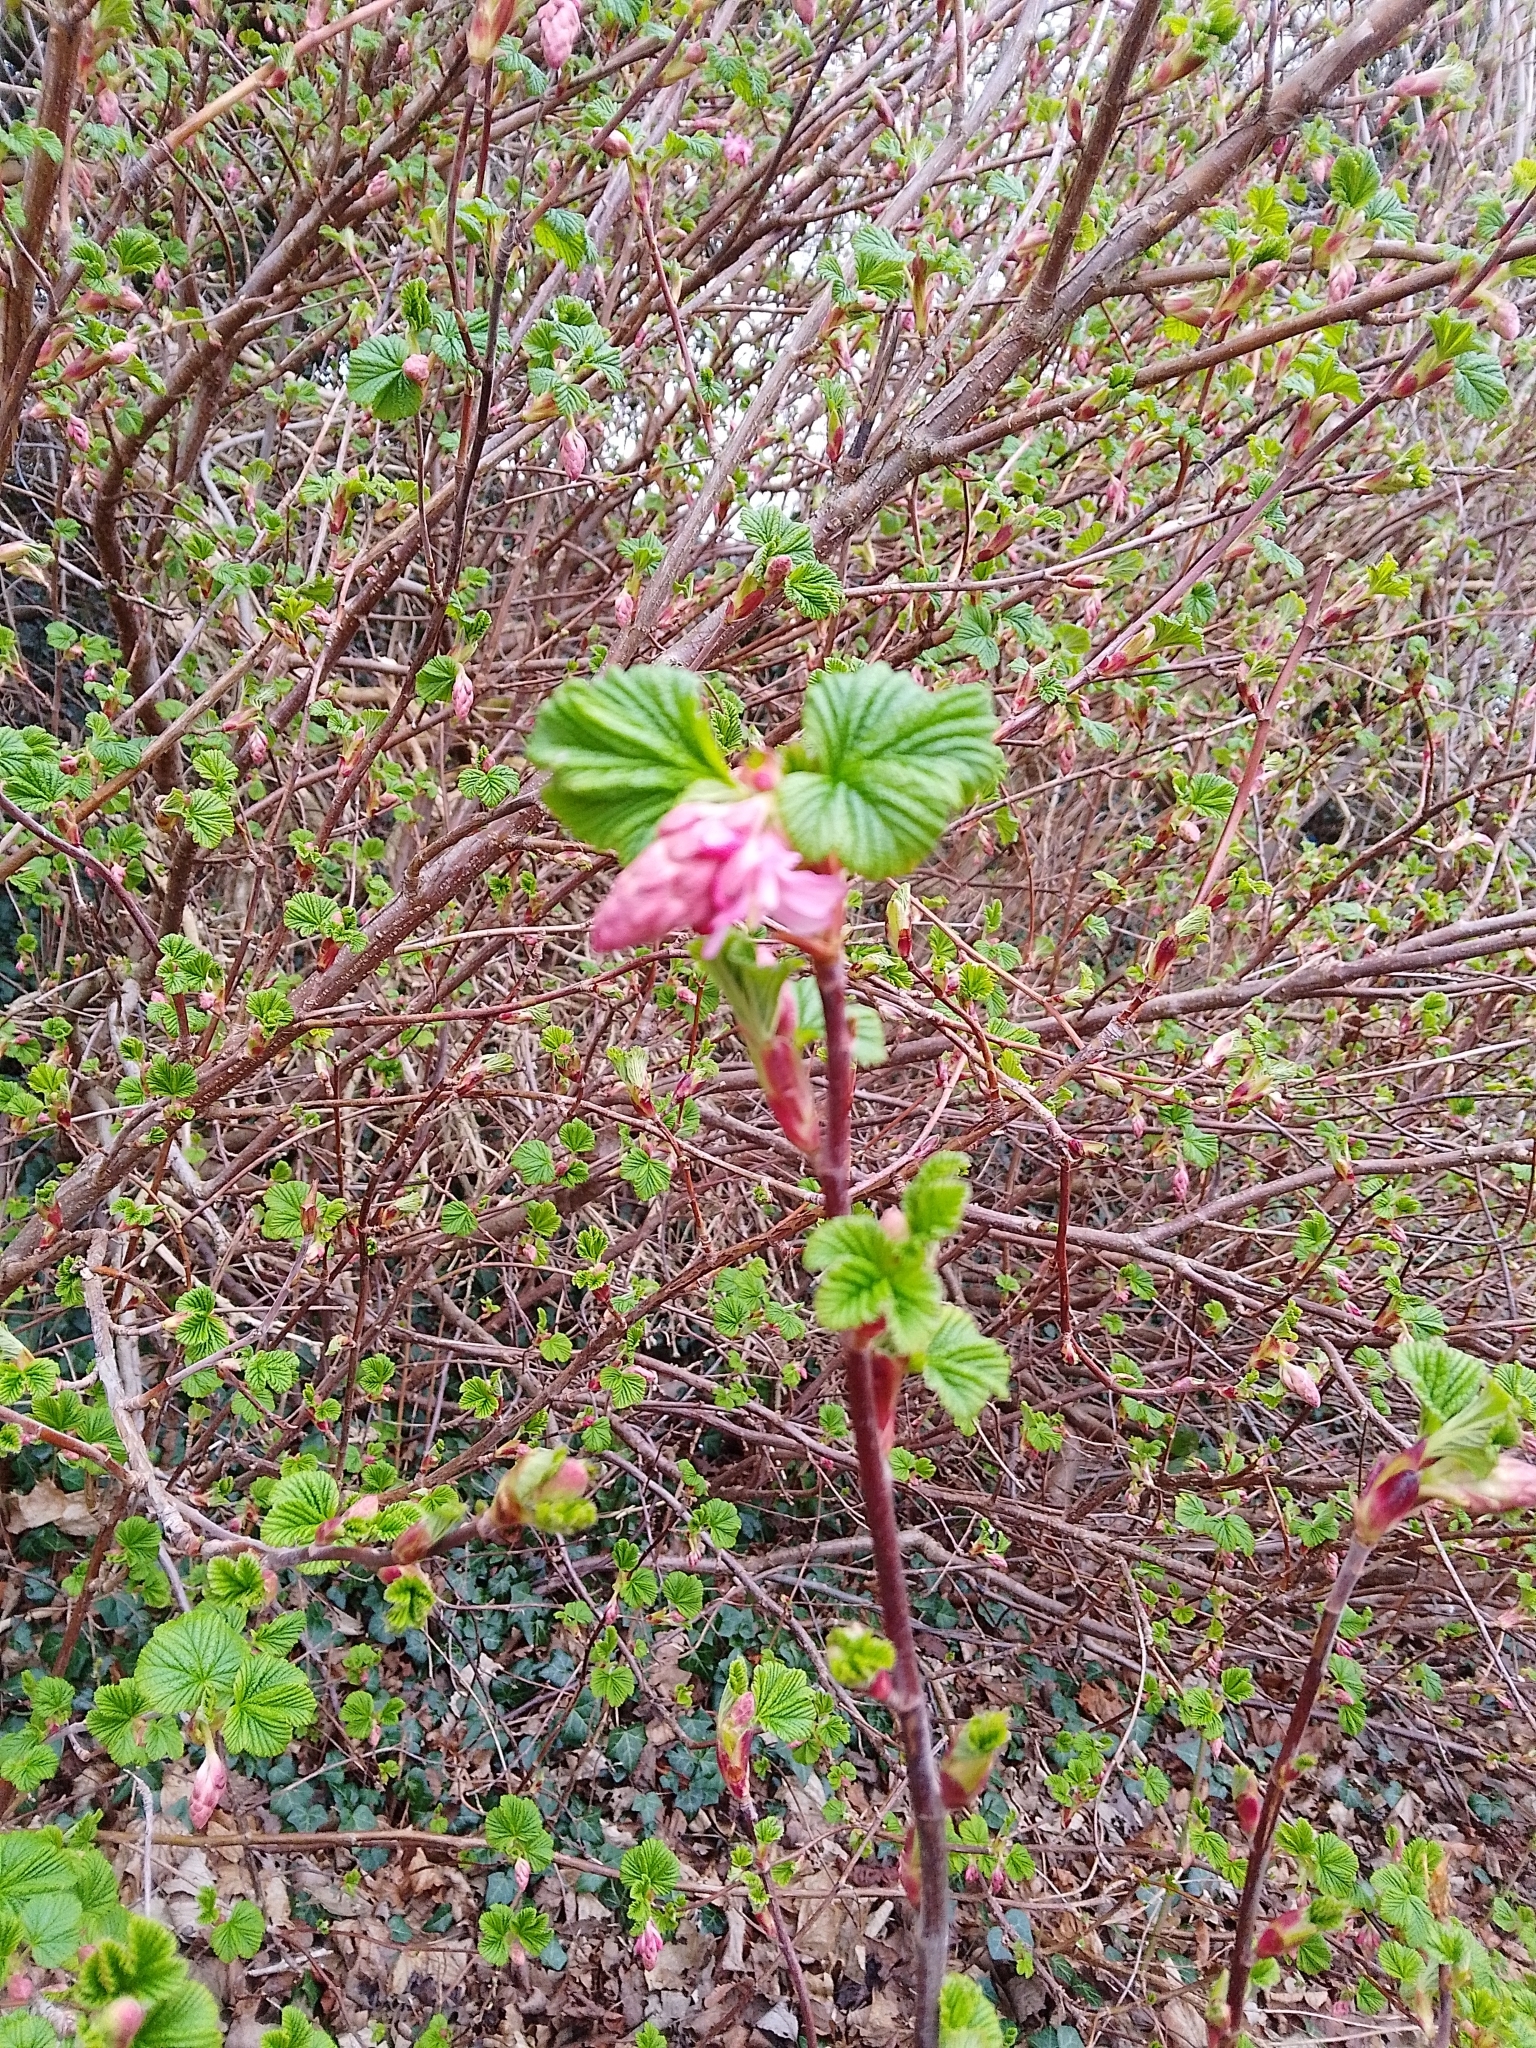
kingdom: Plantae
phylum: Tracheophyta
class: Magnoliopsida
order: Saxifragales
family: Grossulariaceae
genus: Ribes
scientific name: Ribes sanguineum
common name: Flowering currant
